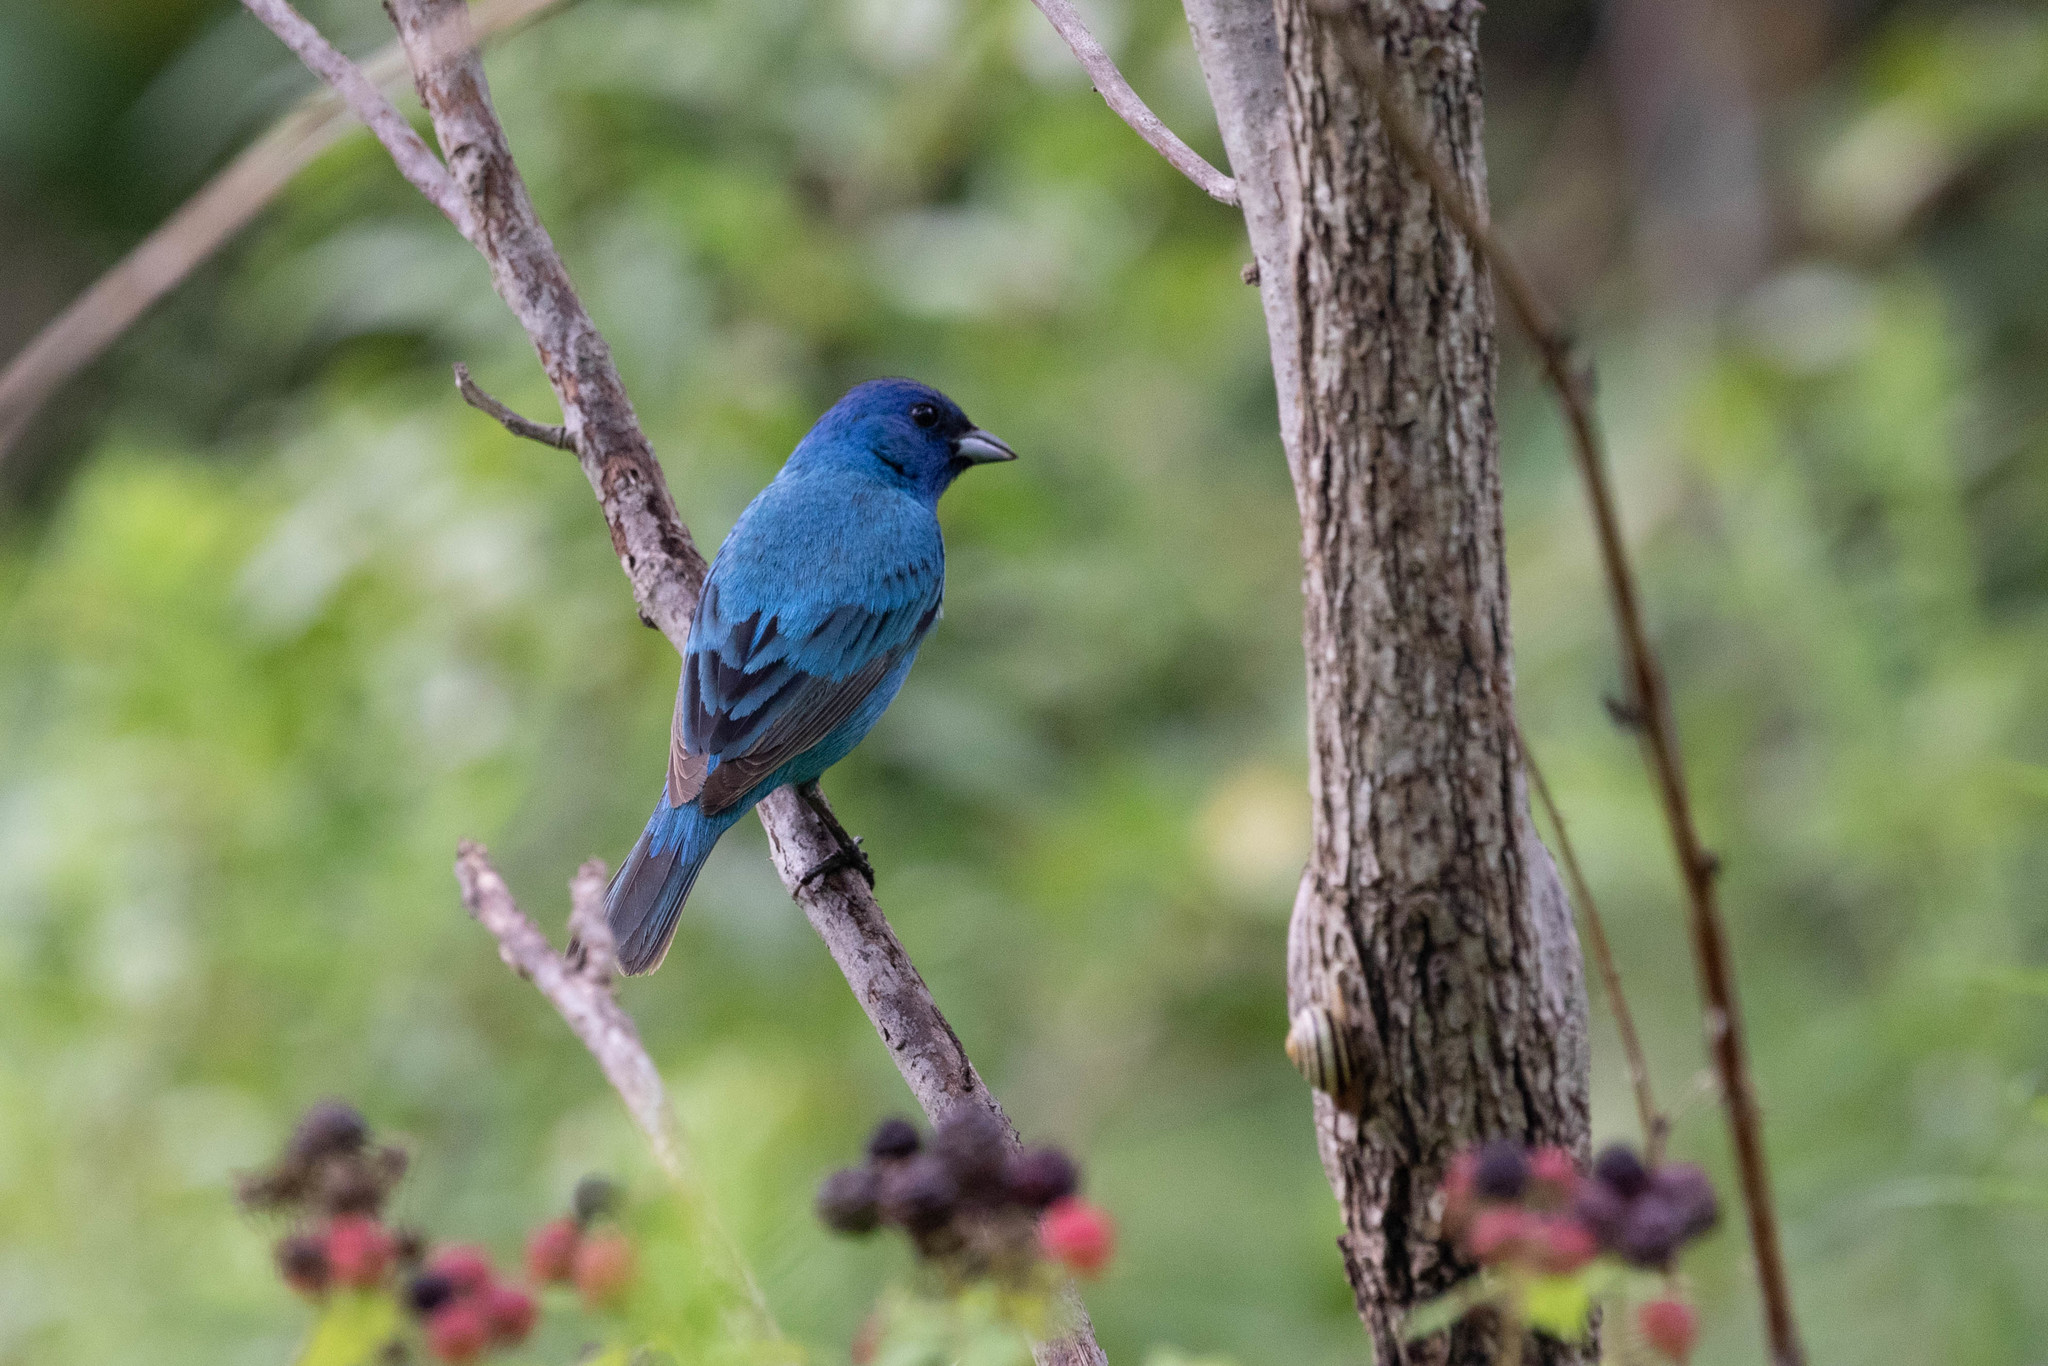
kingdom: Animalia
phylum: Chordata
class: Aves
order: Passeriformes
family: Cardinalidae
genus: Passerina
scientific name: Passerina cyanea
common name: Indigo bunting
